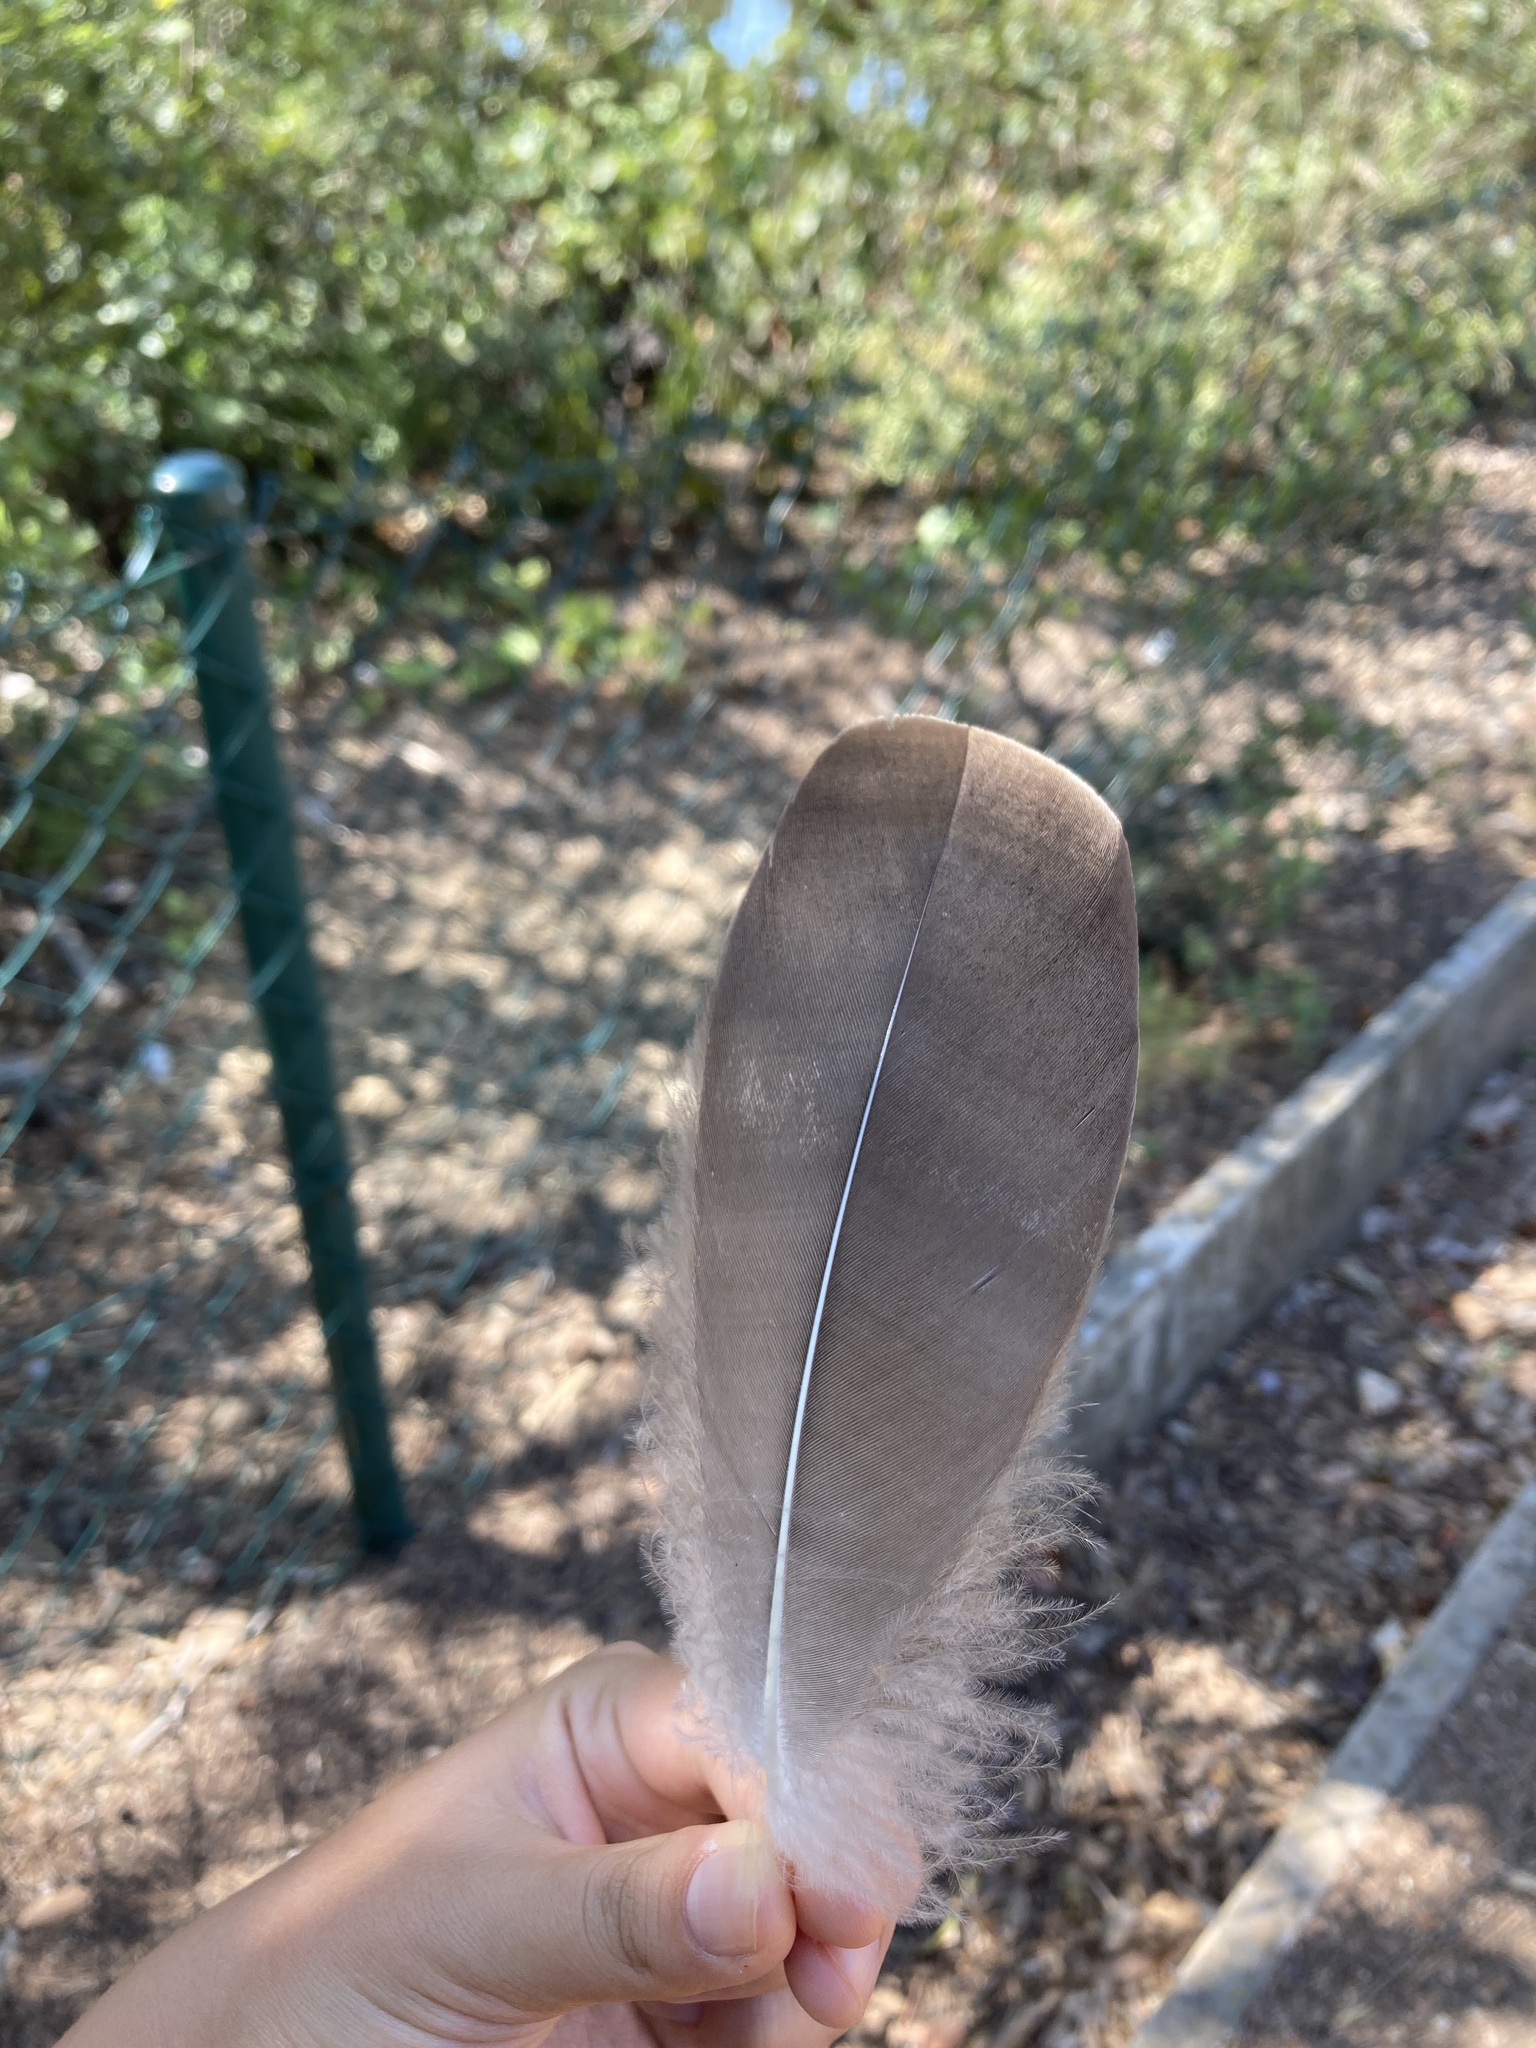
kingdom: Animalia
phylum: Chordata
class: Aves
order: Anseriformes
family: Anatidae
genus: Anser
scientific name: Anser anser
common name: Greylag goose
